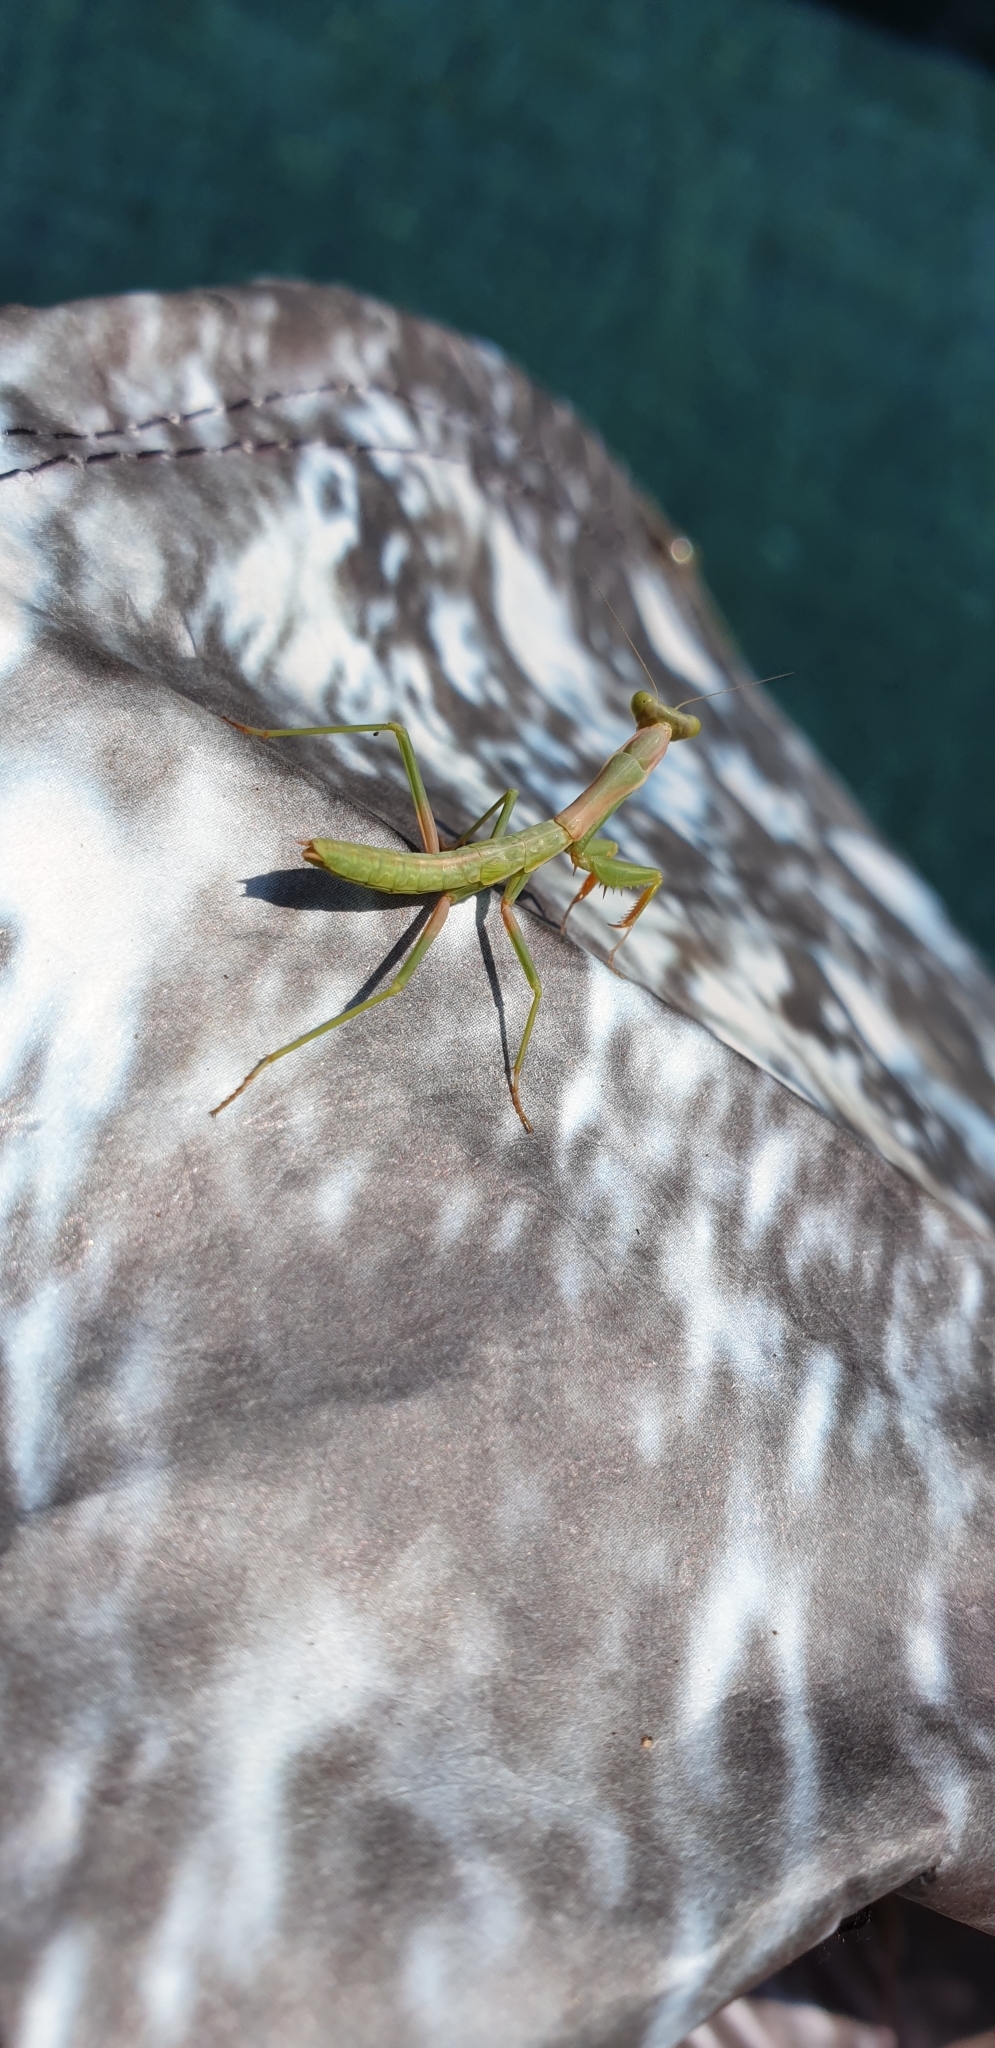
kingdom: Animalia
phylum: Arthropoda
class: Insecta
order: Mantodea
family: Eremiaphilidae
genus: Iris
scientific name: Iris oratoria
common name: Mediterranean mantis
